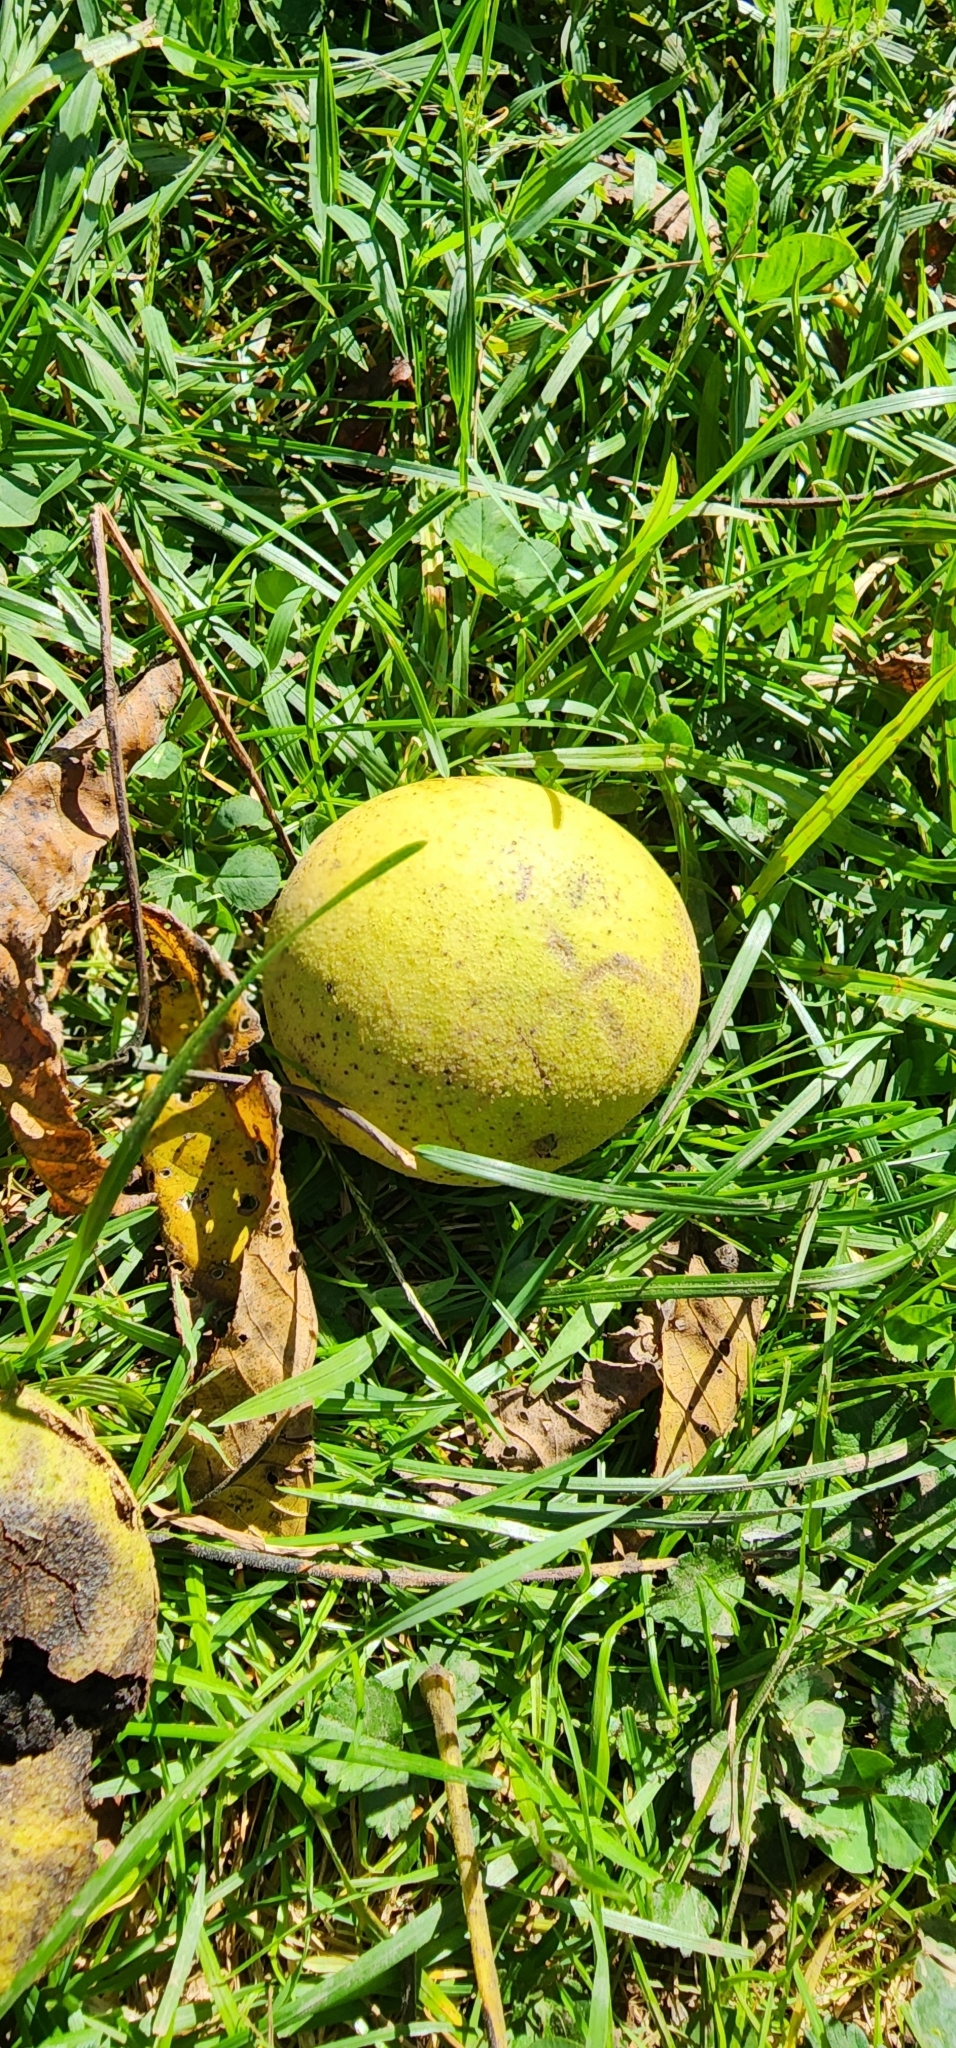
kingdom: Plantae
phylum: Tracheophyta
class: Magnoliopsida
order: Fagales
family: Juglandaceae
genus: Juglans
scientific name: Juglans nigra
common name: Black walnut
